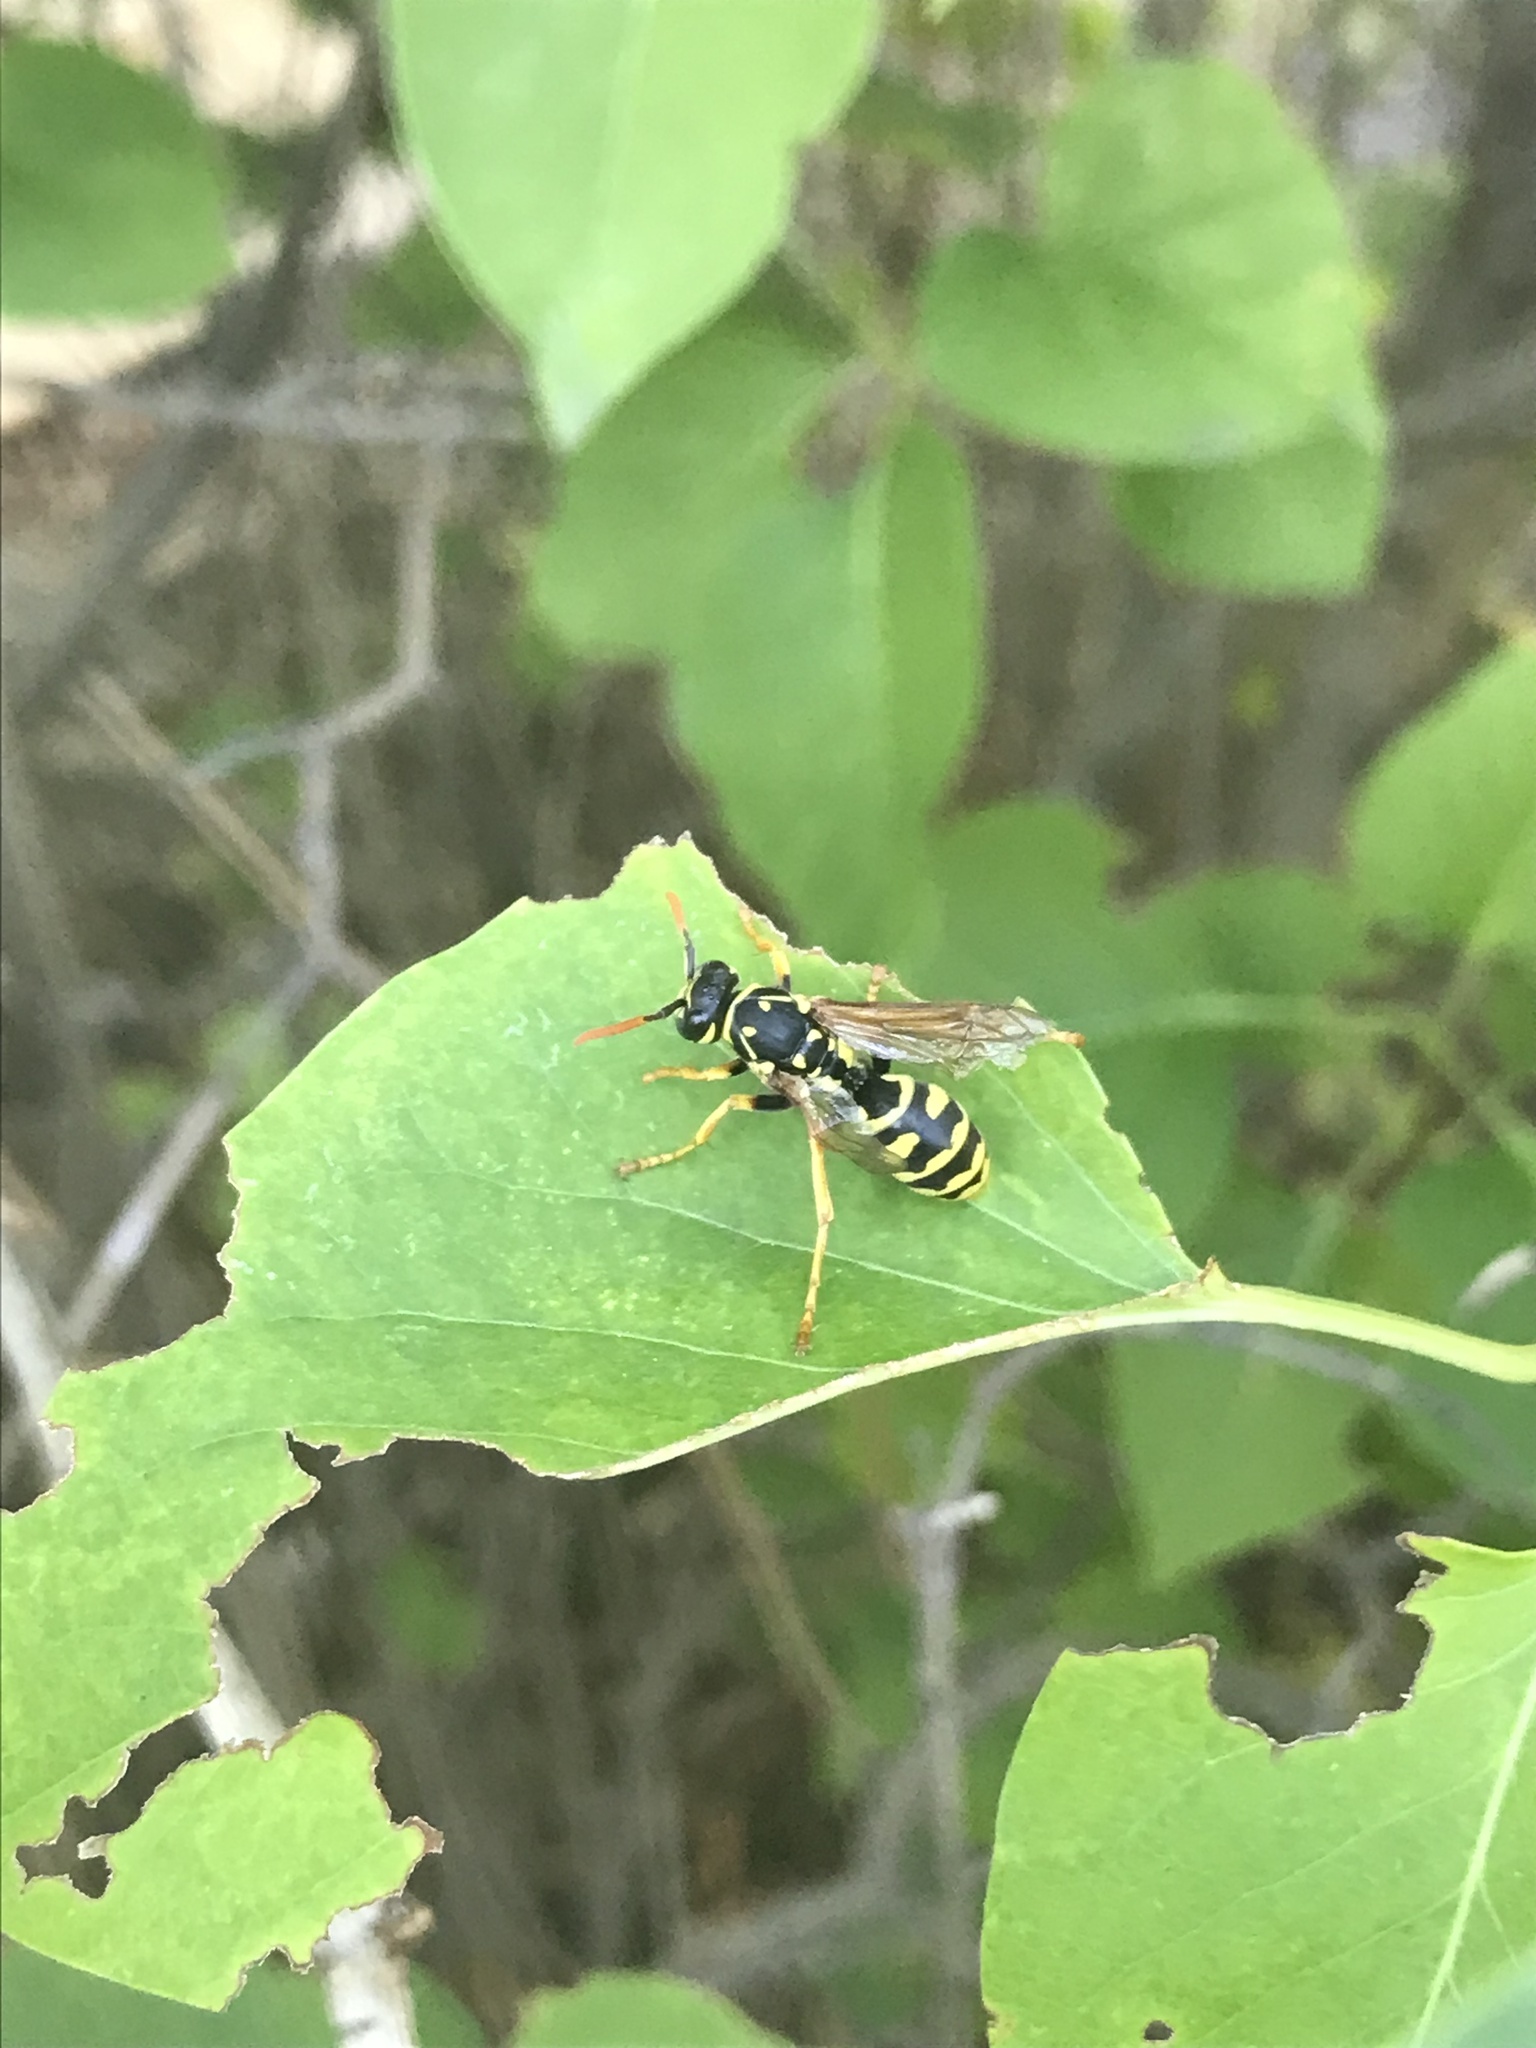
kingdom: Animalia
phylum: Arthropoda
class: Insecta
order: Hymenoptera
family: Eumenidae
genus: Polistes
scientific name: Polistes dominula
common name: Paper wasp
